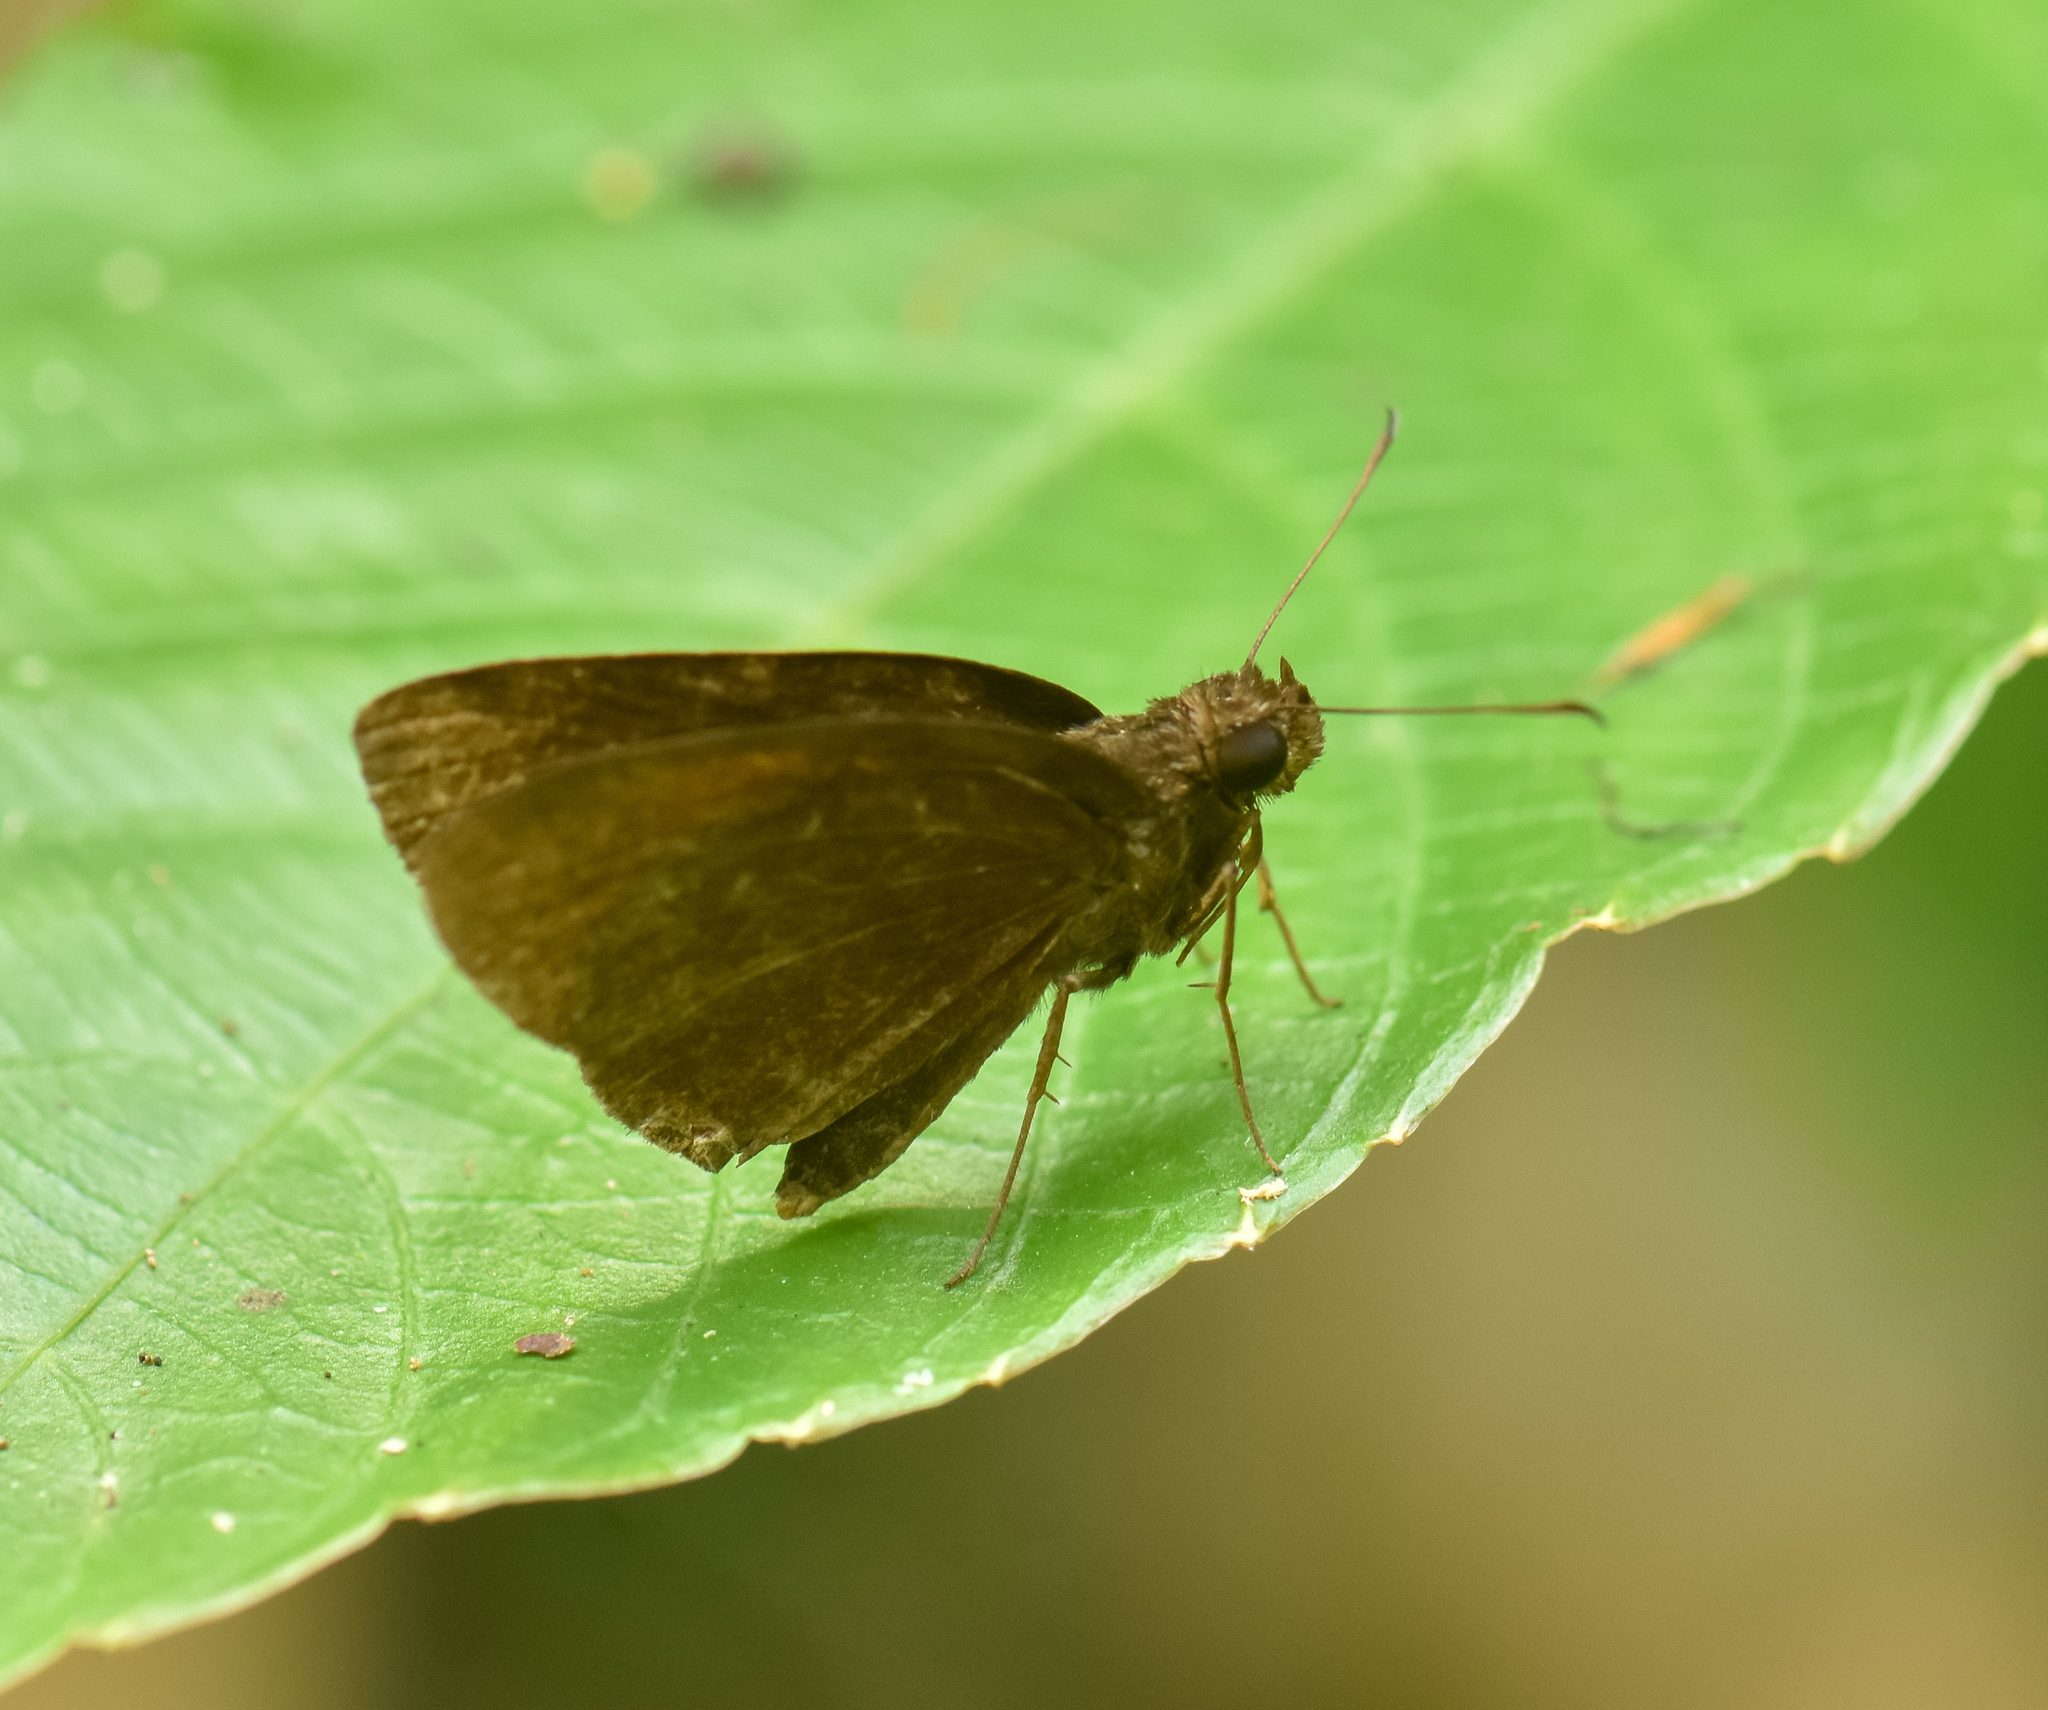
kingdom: Animalia
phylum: Arthropoda
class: Insecta
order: Lepidoptera
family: Hesperiidae
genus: Ancistroides
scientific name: Ancistroides nigrita
